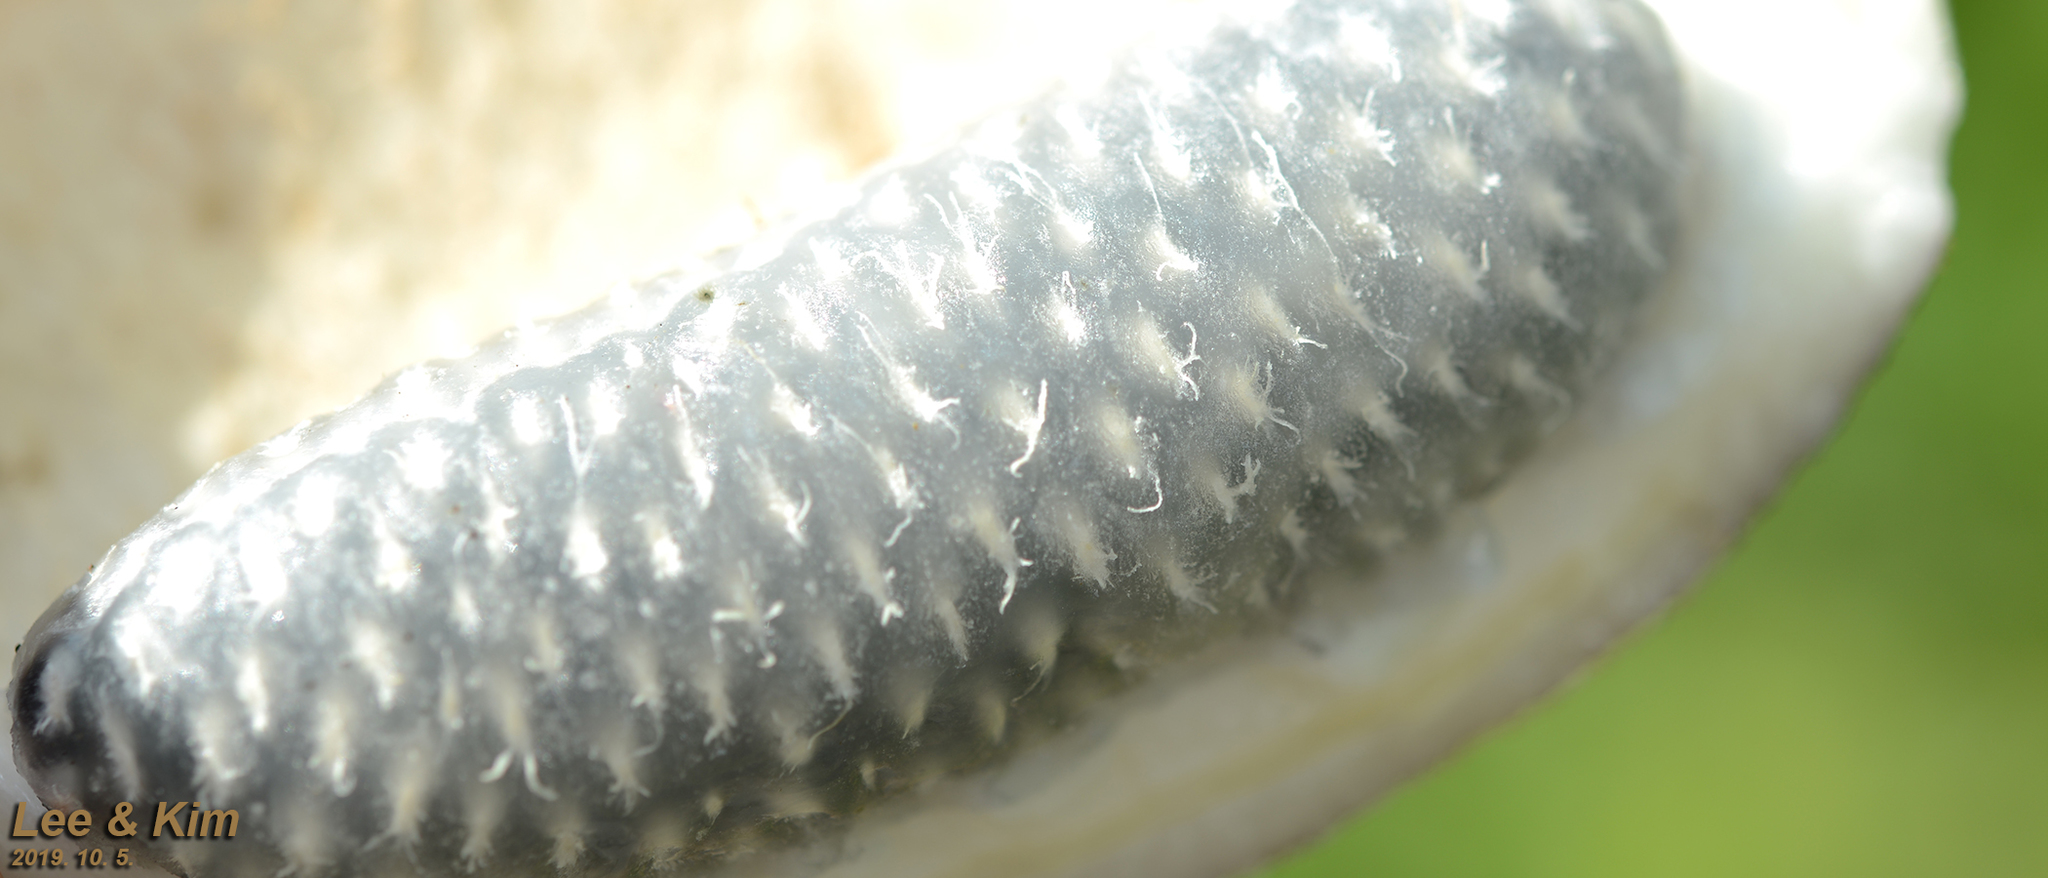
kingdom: Plantae
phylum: Tracheophyta
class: Magnoliopsida
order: Ranunculales
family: Lardizabalaceae
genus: Akebia
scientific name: Akebia quinata
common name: Five-leaf akebia
